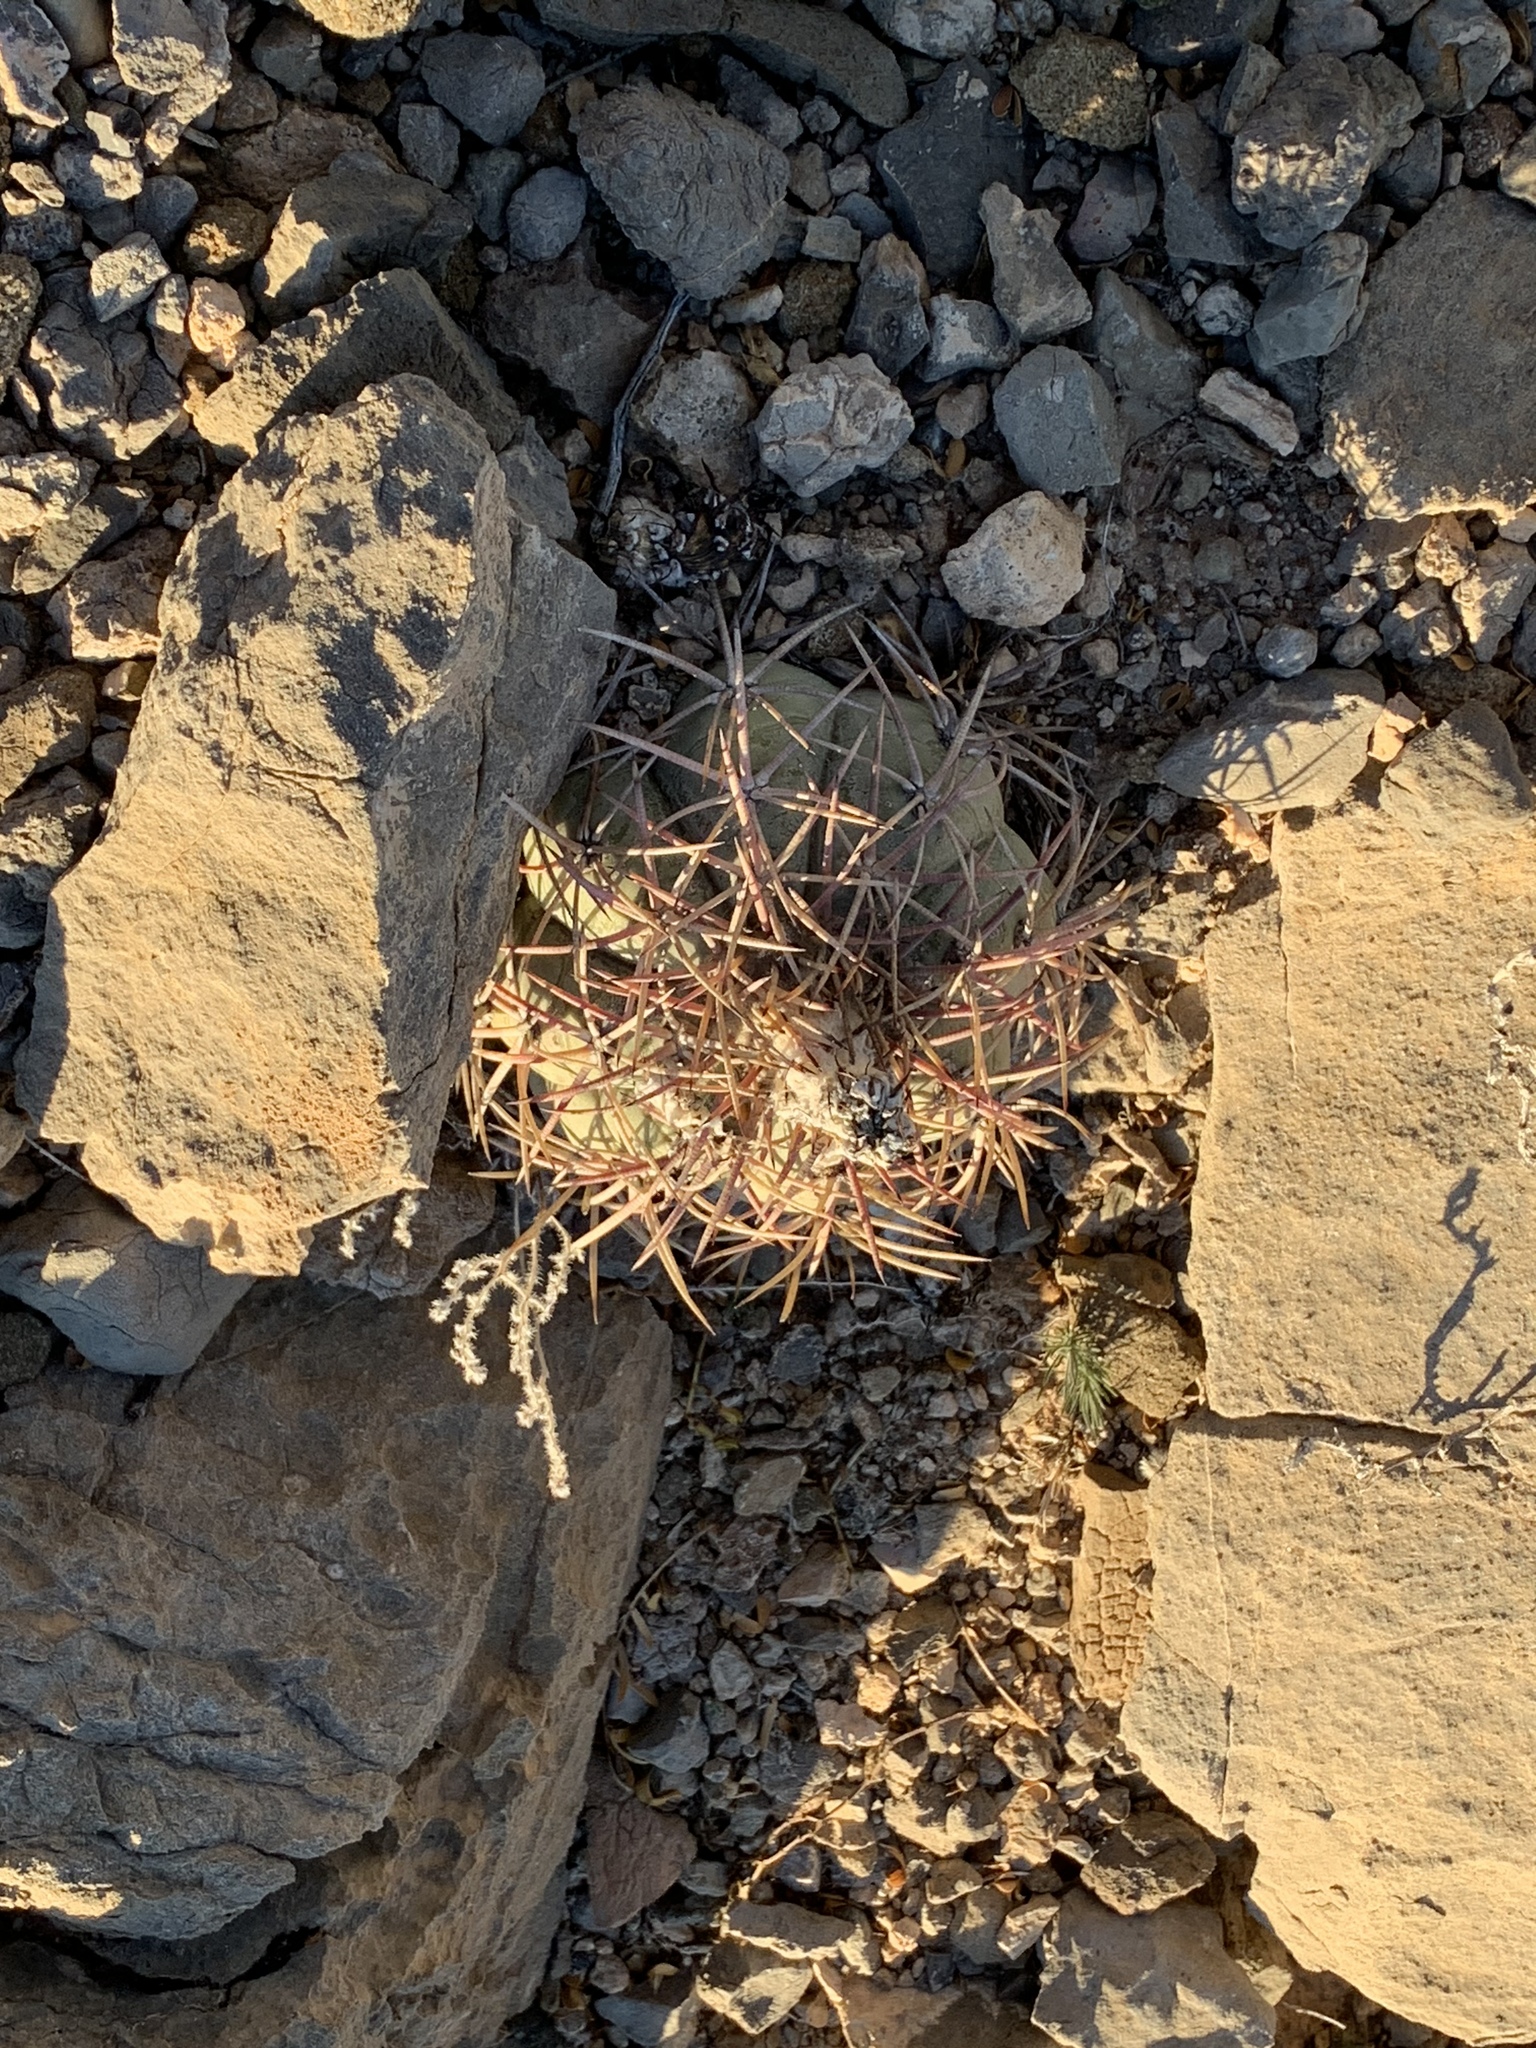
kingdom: Plantae
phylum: Tracheophyta
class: Magnoliopsida
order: Caryophyllales
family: Cactaceae
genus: Echinocactus
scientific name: Echinocactus horizonthalonius
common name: Devilshead
